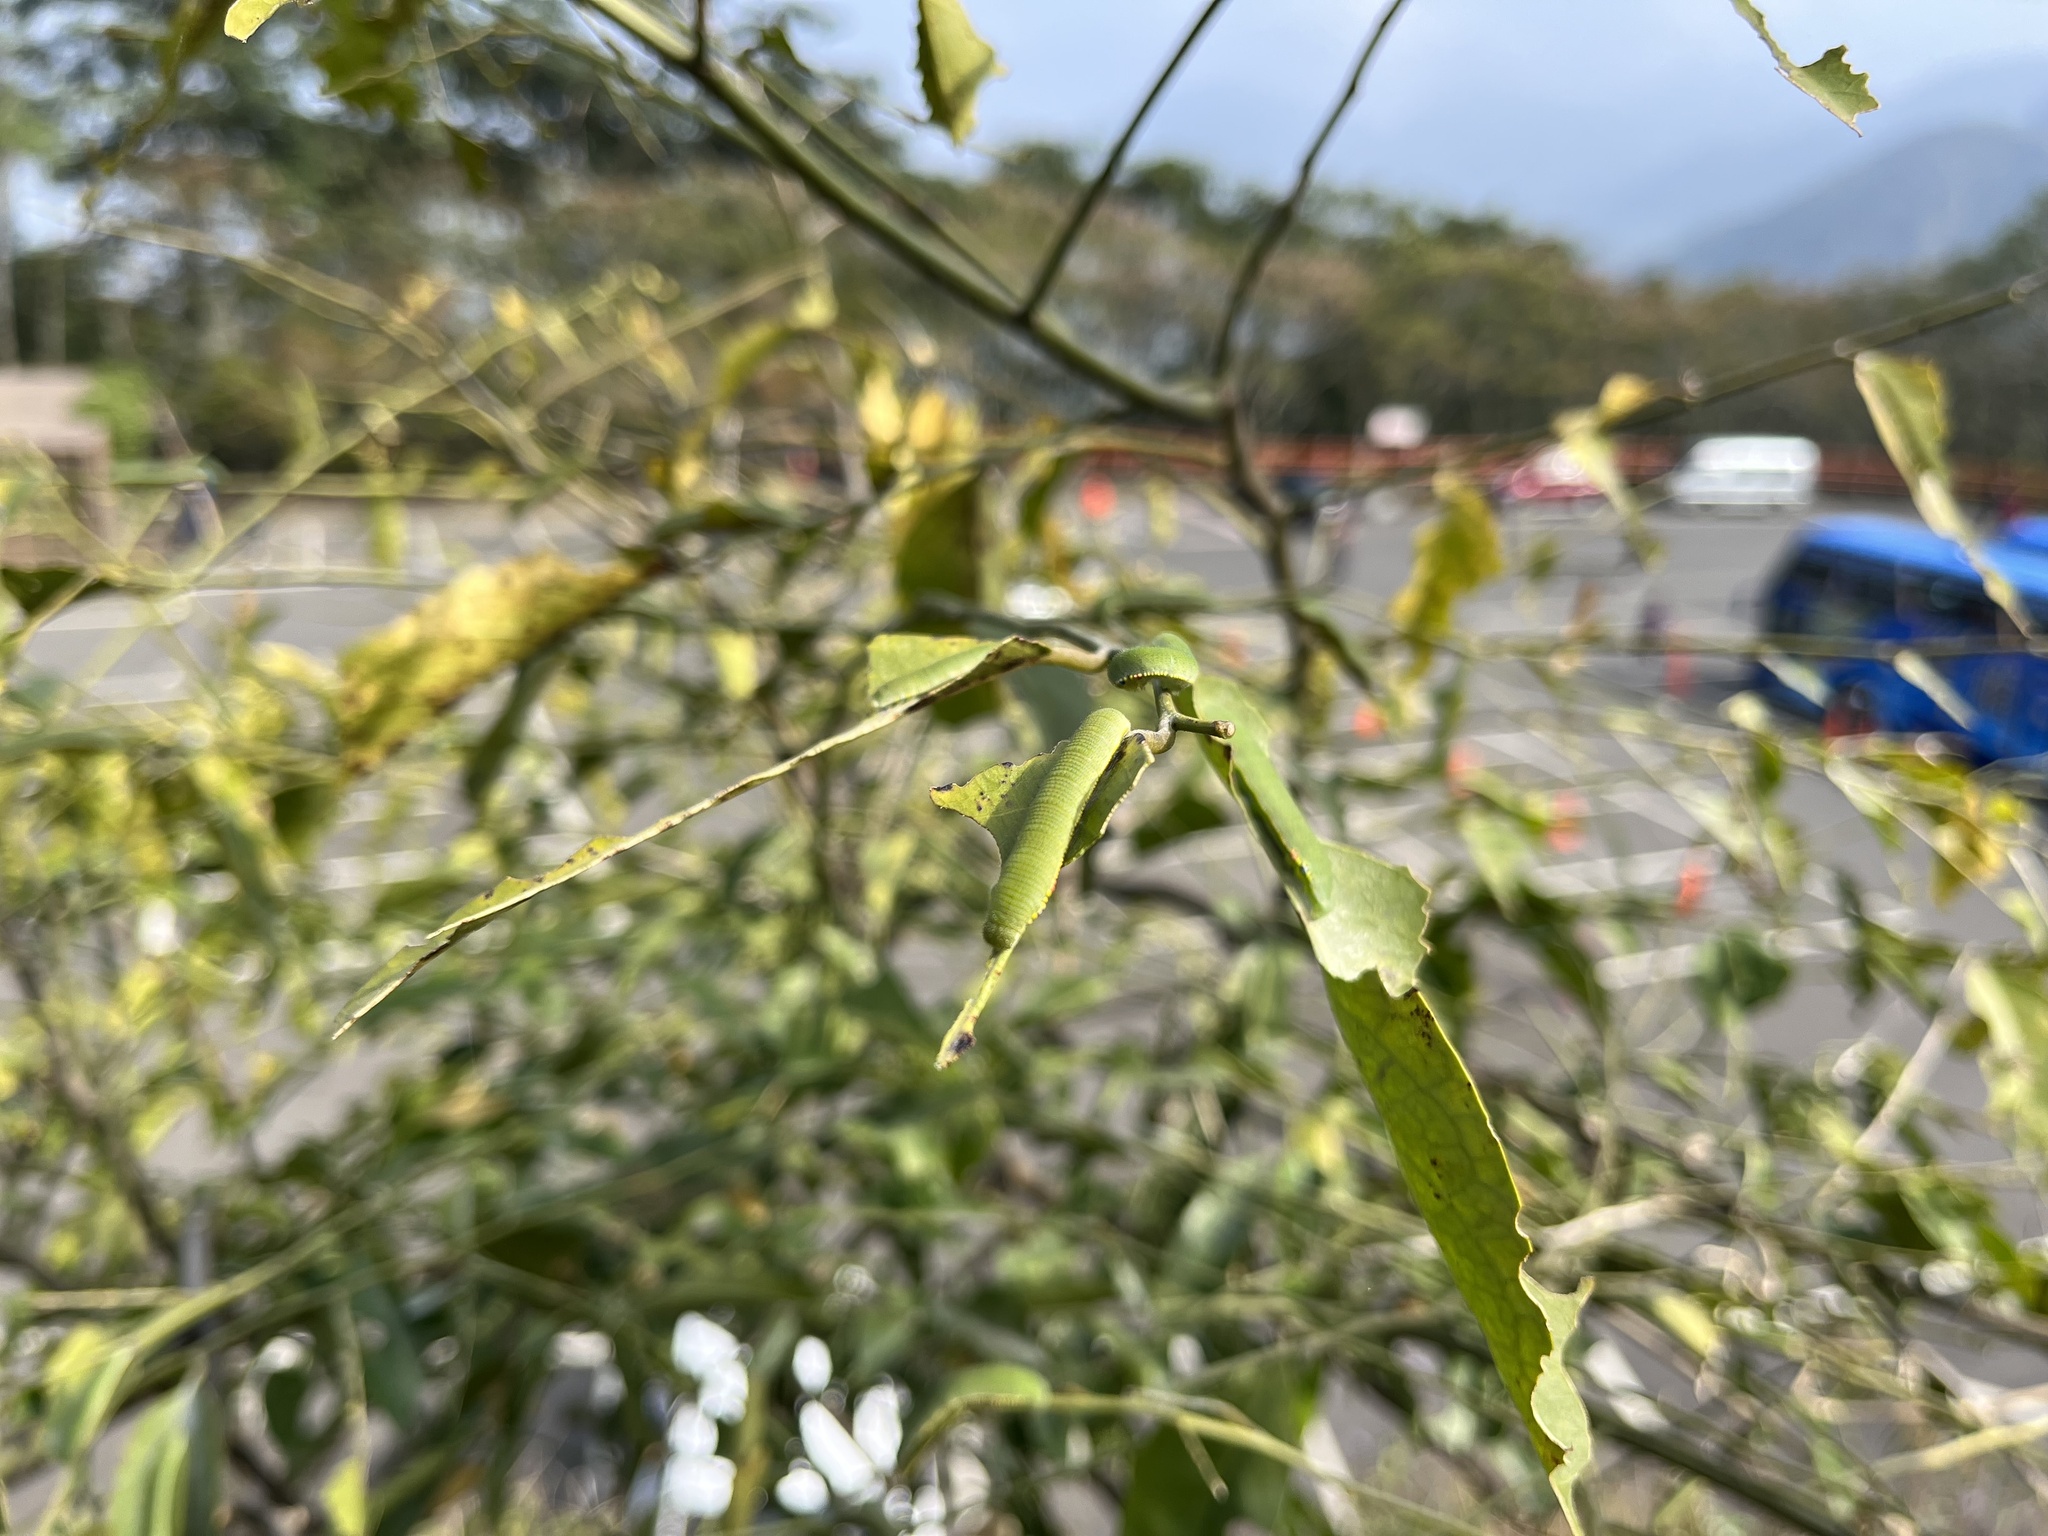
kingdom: Animalia
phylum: Arthropoda
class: Insecta
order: Lepidoptera
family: Pieridae
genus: Hebomoia
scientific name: Hebomoia glaucippe
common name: Great orange tip
